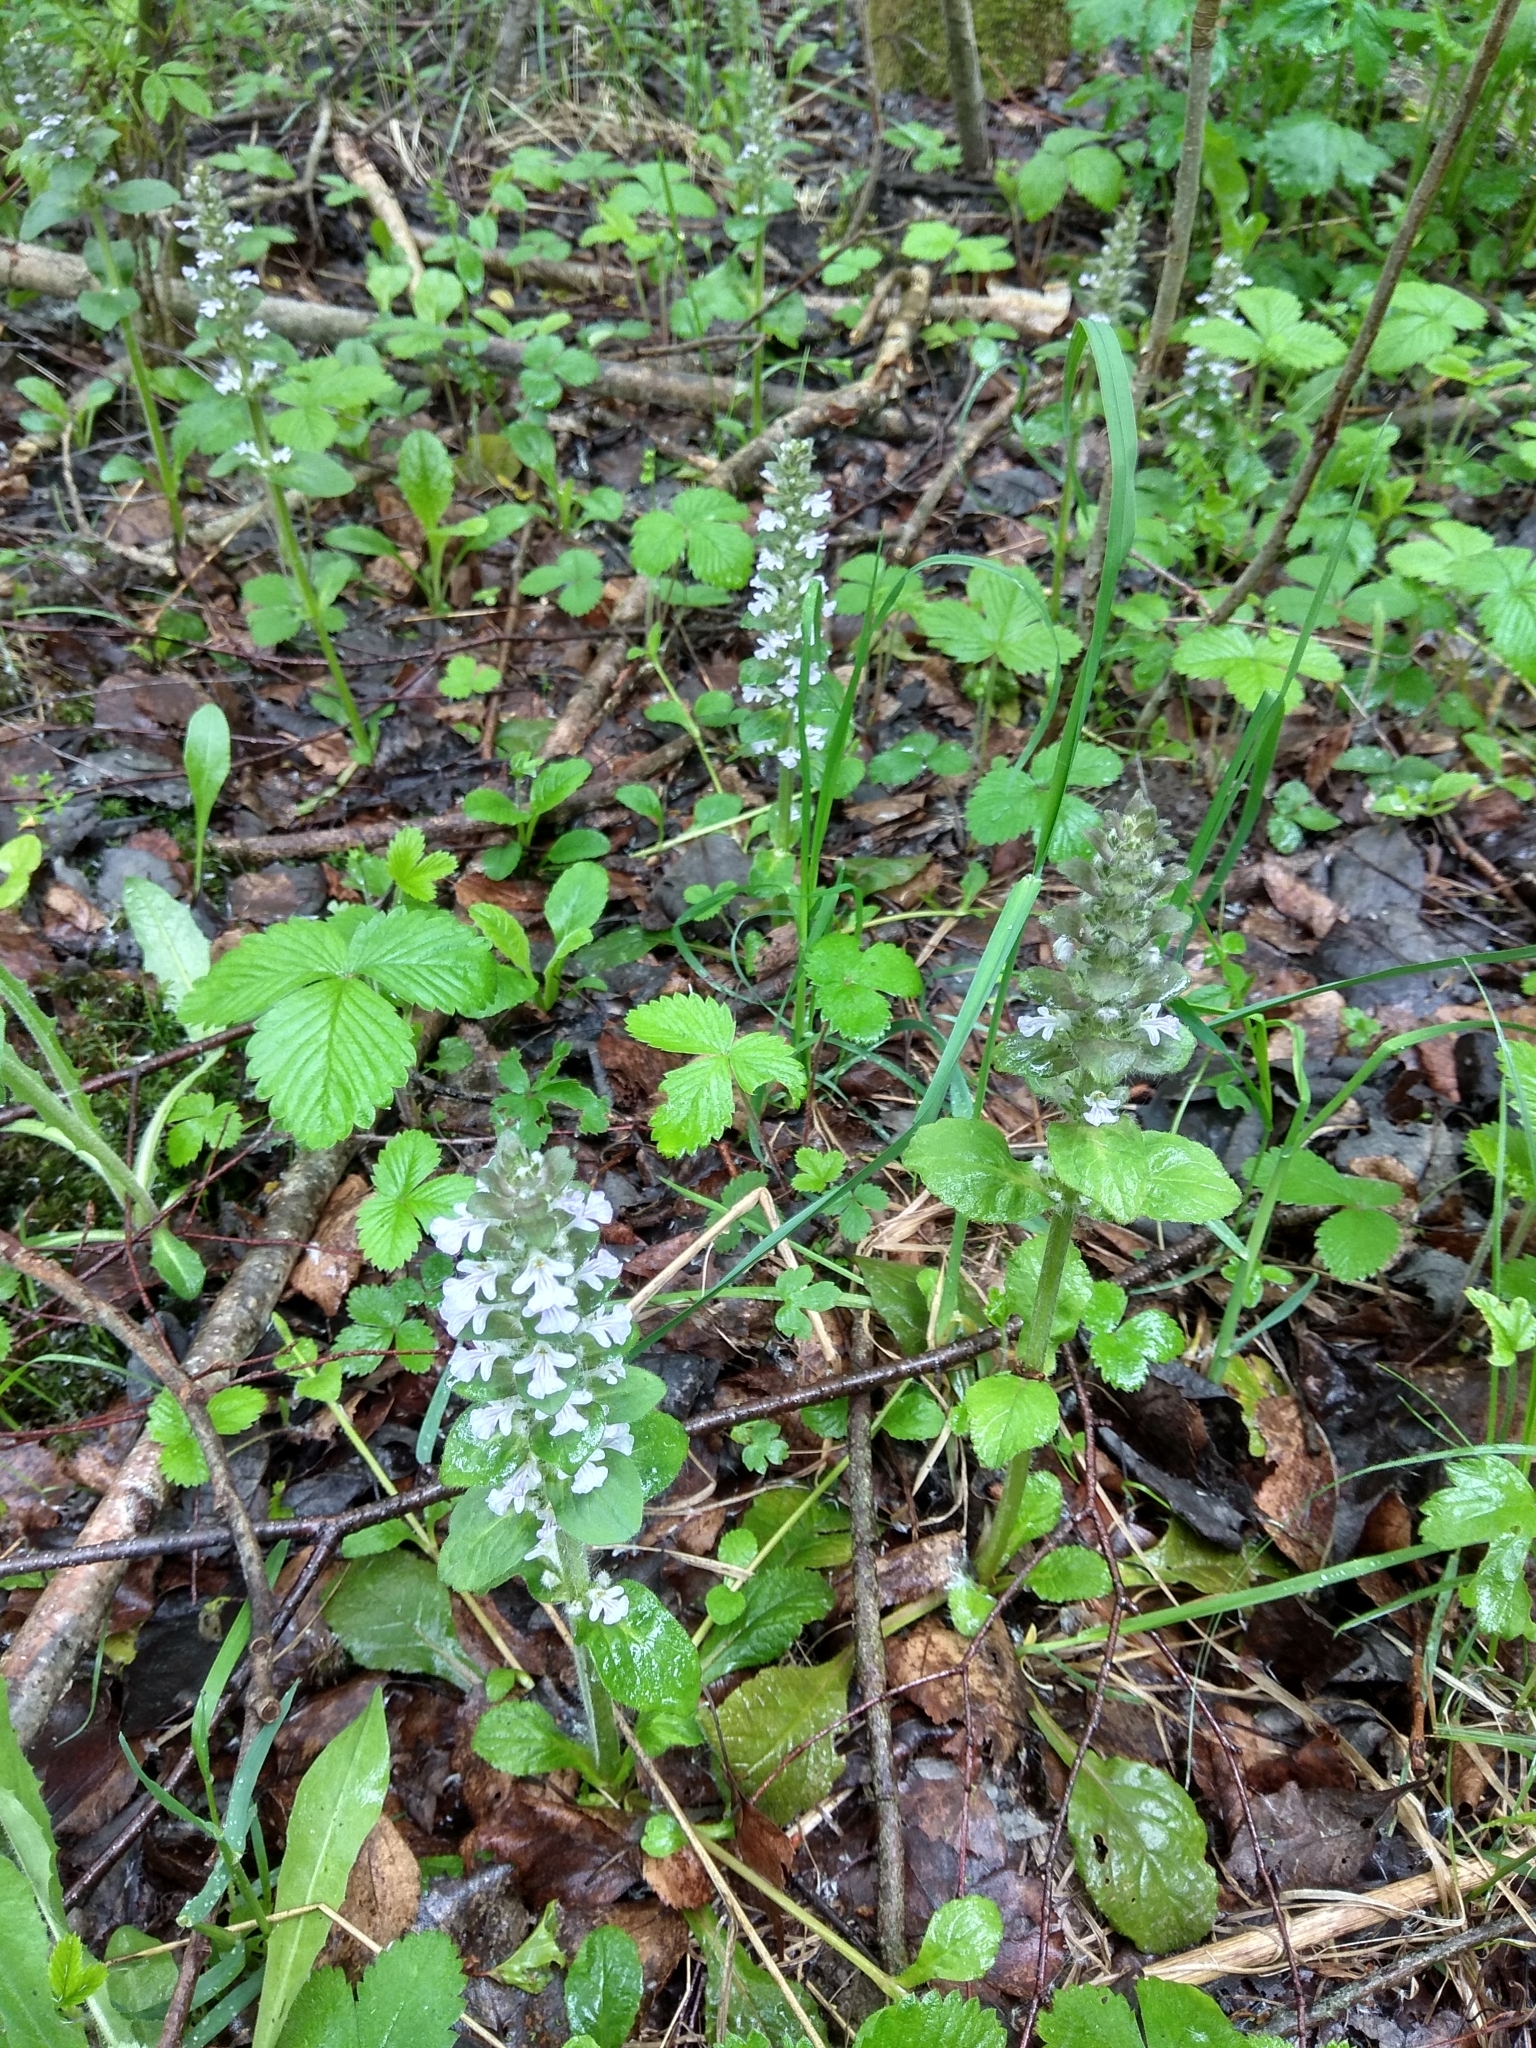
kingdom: Plantae
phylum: Tracheophyta
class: Magnoliopsida
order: Lamiales
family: Lamiaceae
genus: Ajuga
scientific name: Ajuga reptans
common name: Bugle
